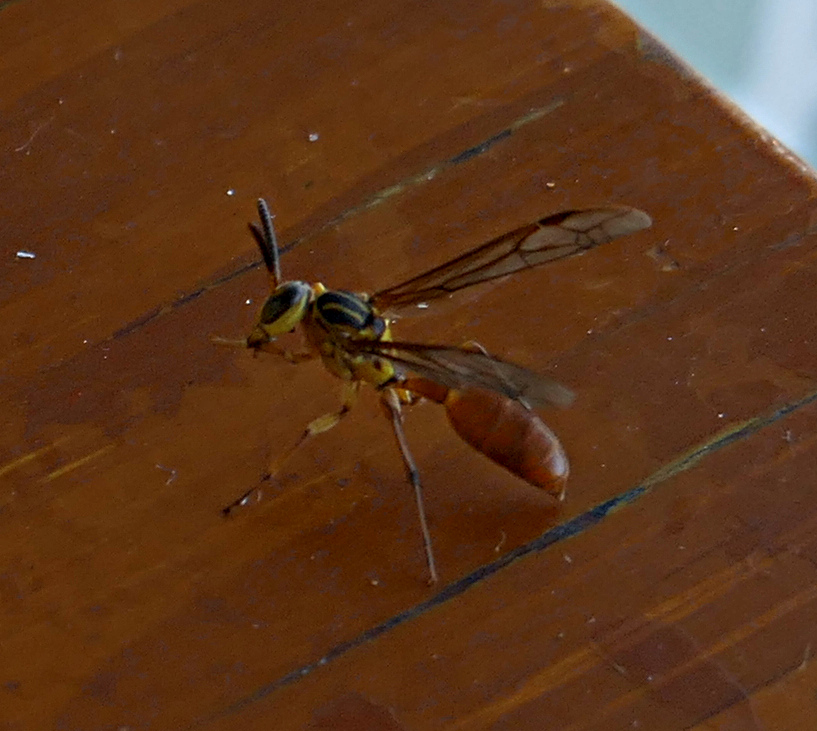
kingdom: Animalia
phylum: Arthropoda
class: Insecta
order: Hymenoptera
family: Vespidae
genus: Agelaia
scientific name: Agelaia centralis
